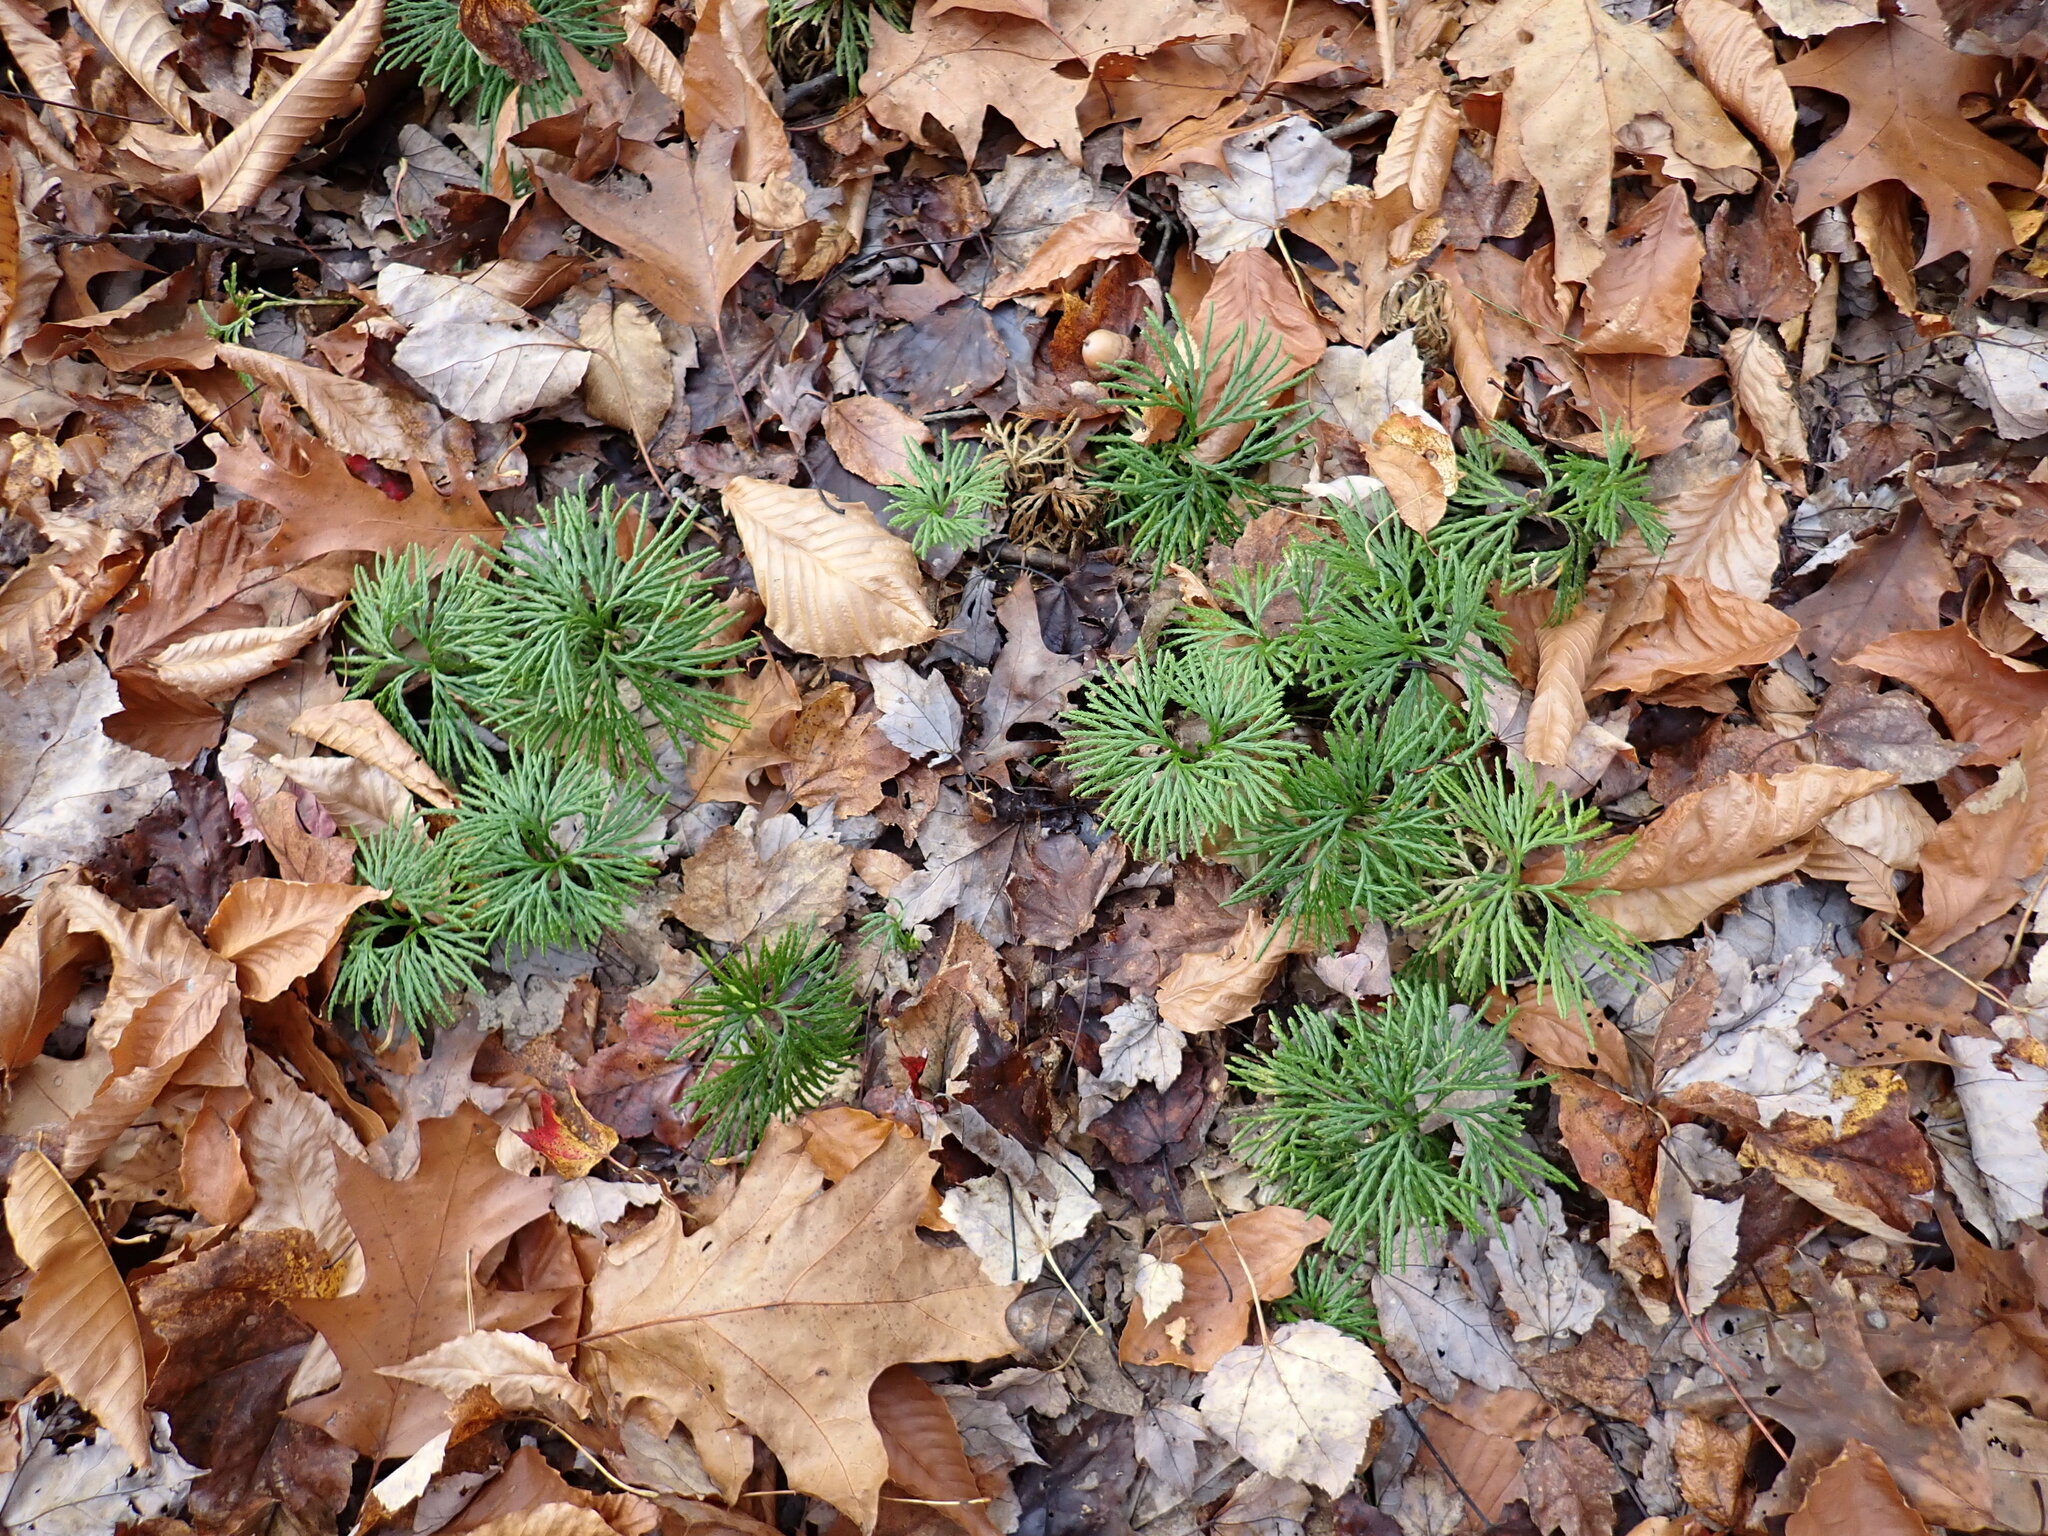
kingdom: Plantae
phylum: Tracheophyta
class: Lycopodiopsida
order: Lycopodiales
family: Lycopodiaceae
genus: Diphasiastrum
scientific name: Diphasiastrum digitatum
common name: Southern running-pine
